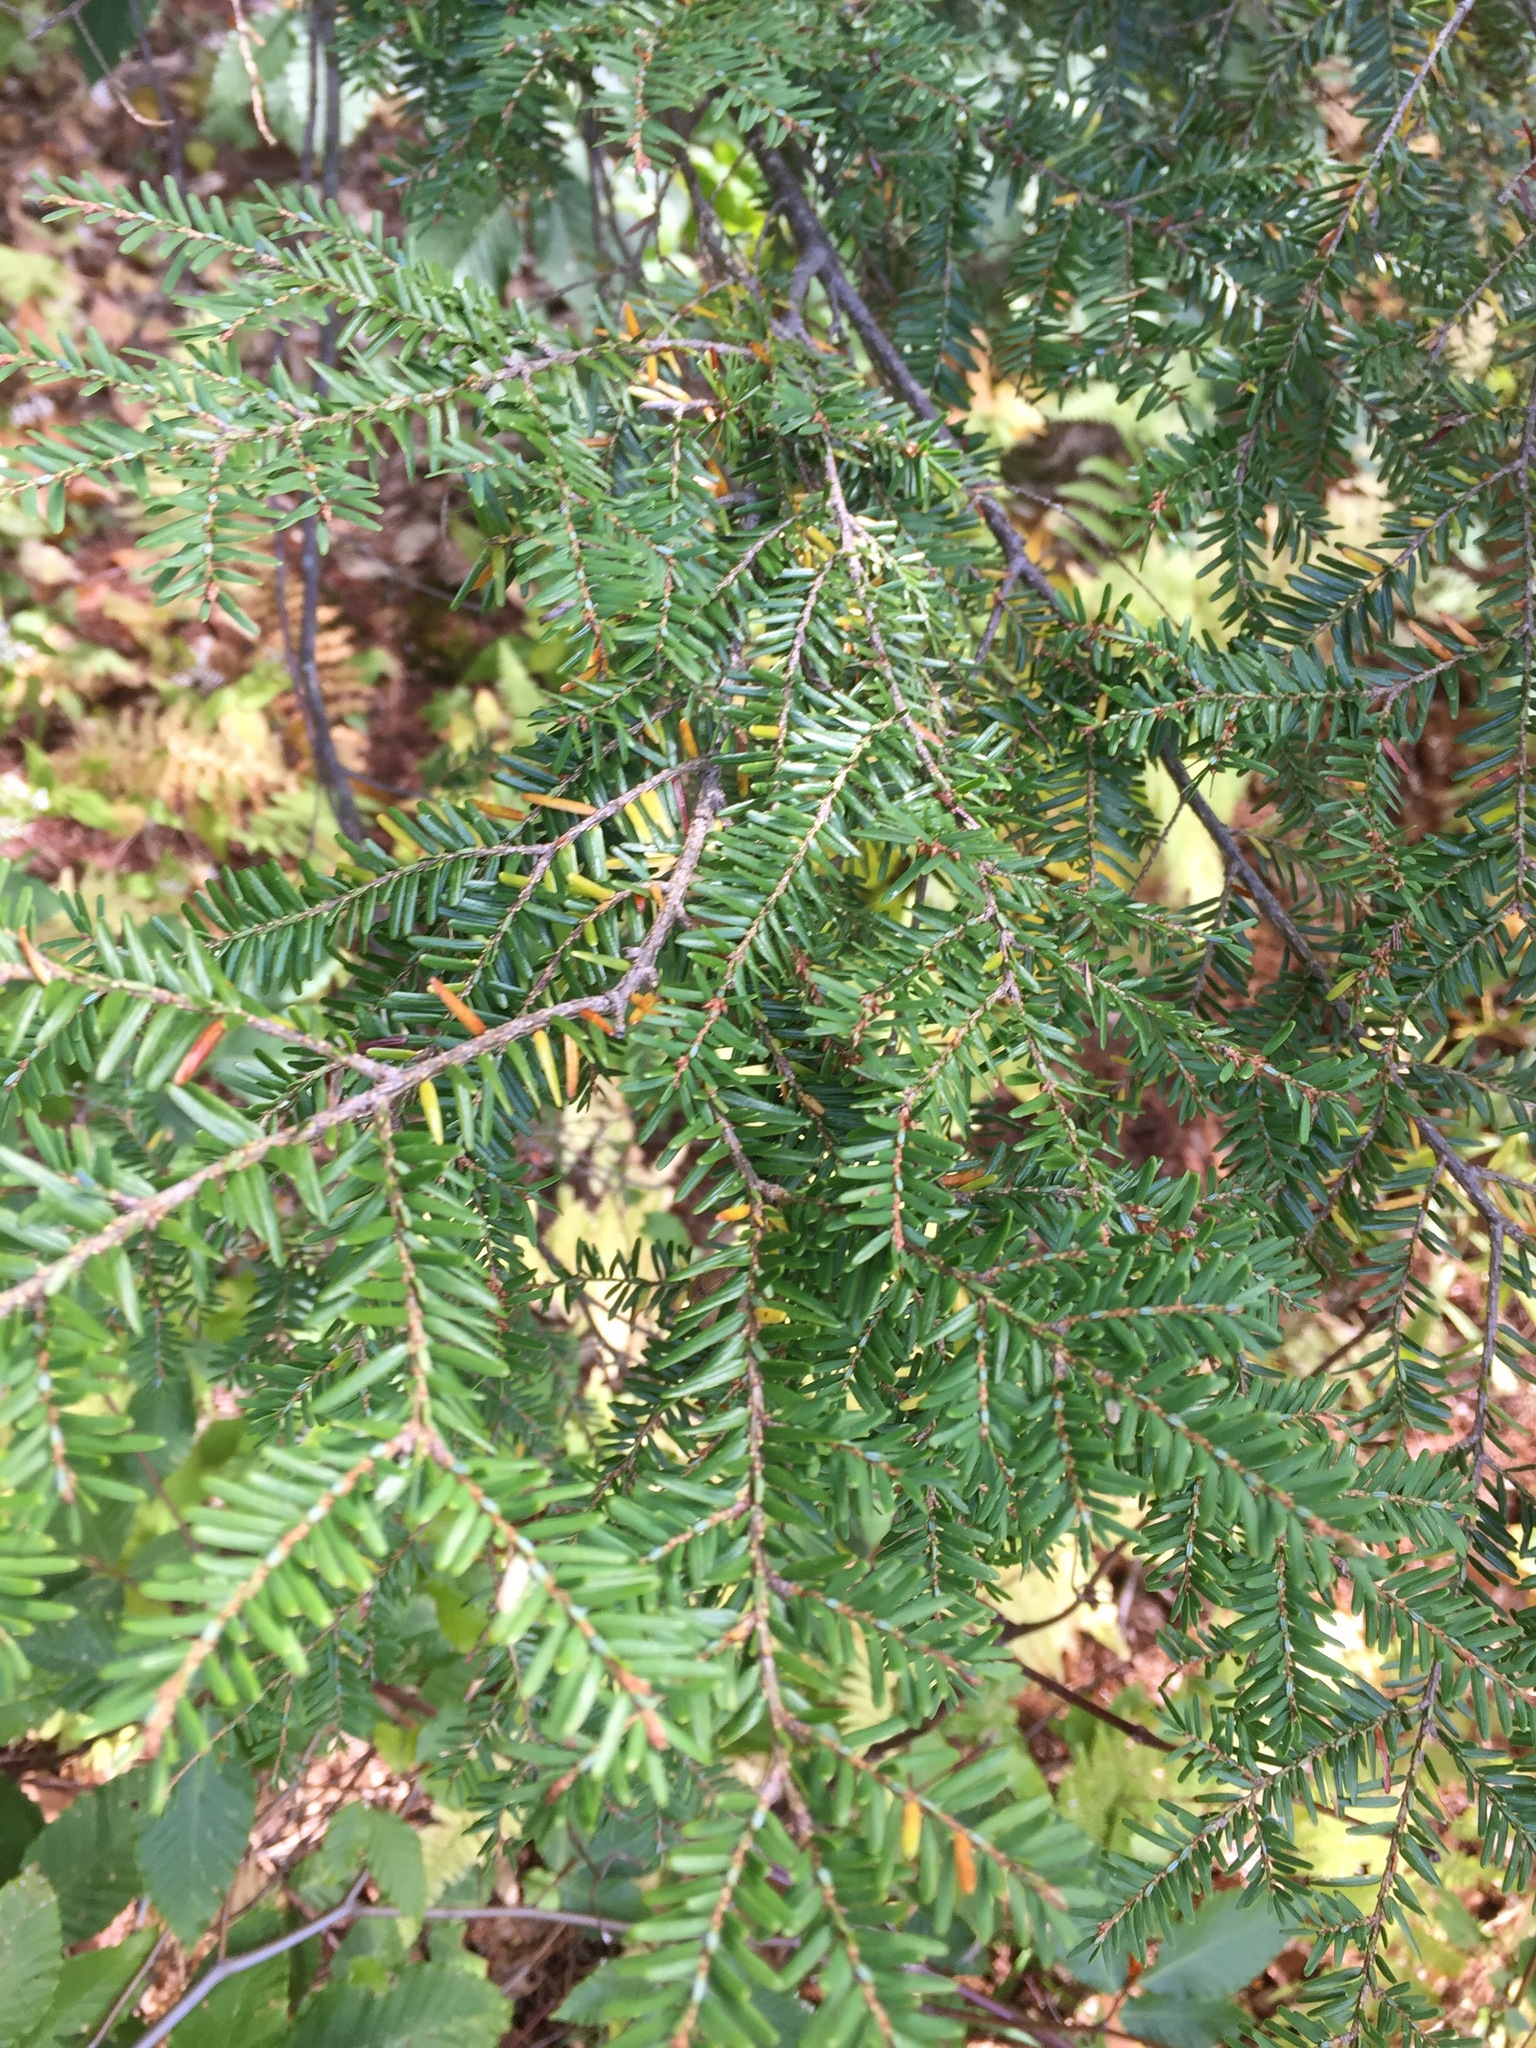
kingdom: Plantae
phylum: Tracheophyta
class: Pinopsida
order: Pinales
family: Pinaceae
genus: Tsuga
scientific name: Tsuga canadensis
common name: Eastern hemlock
